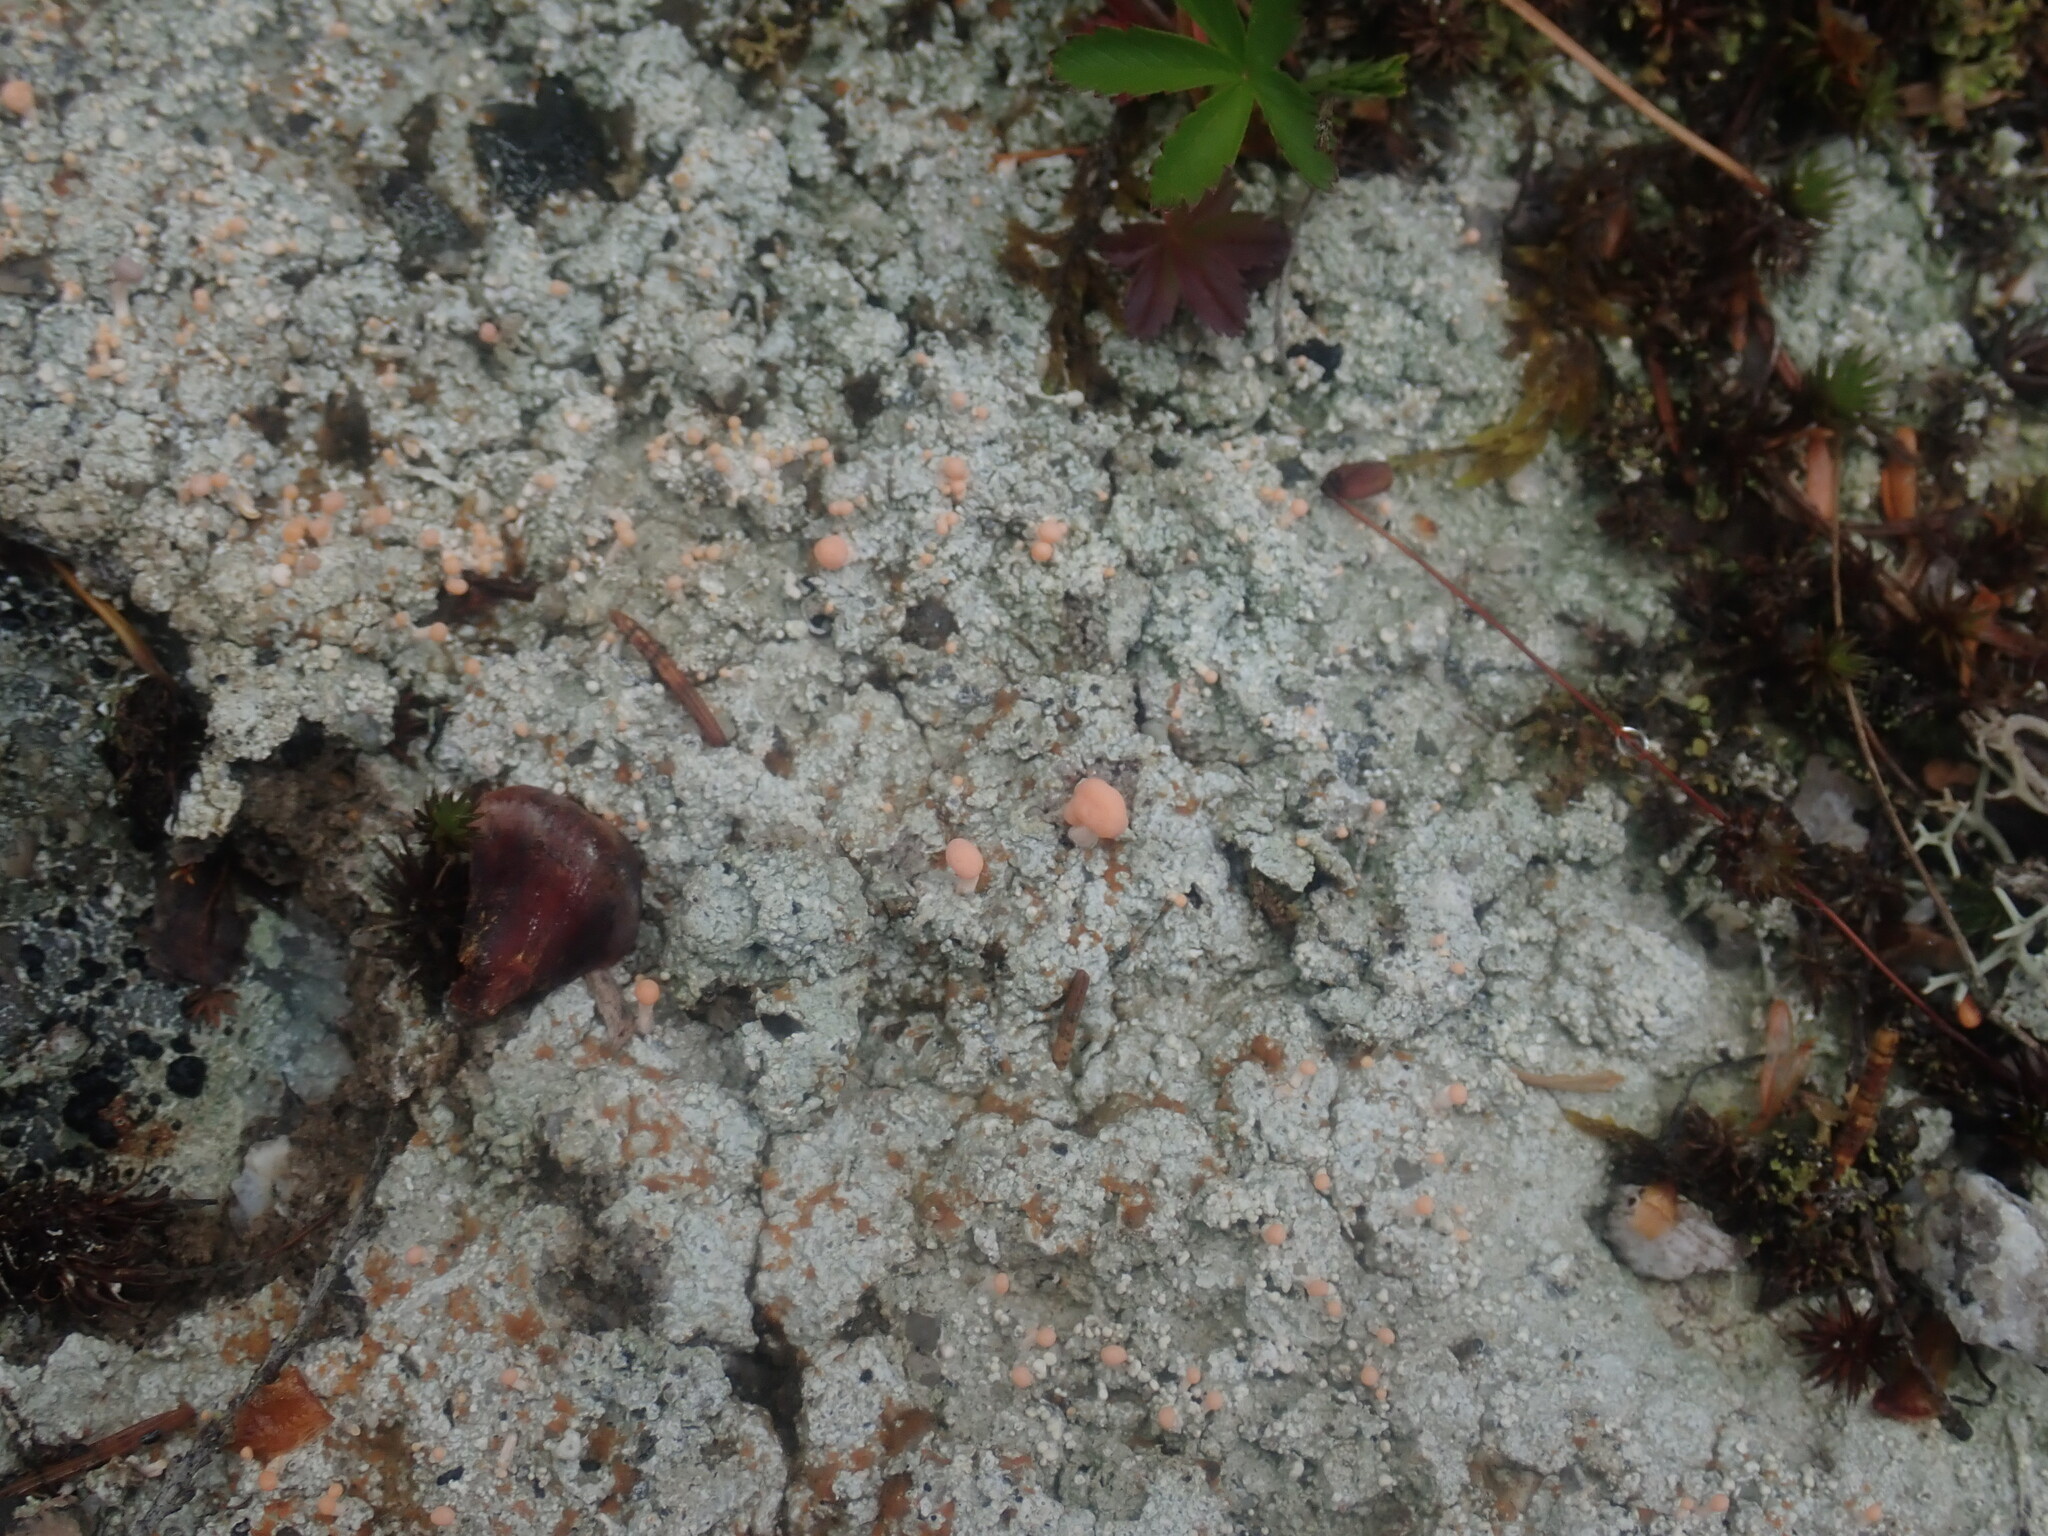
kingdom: Fungi
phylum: Ascomycota
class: Lecanoromycetes
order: Pertusariales
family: Icmadophilaceae
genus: Dibaeis
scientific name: Dibaeis baeomyces
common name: Pink earth lichen
